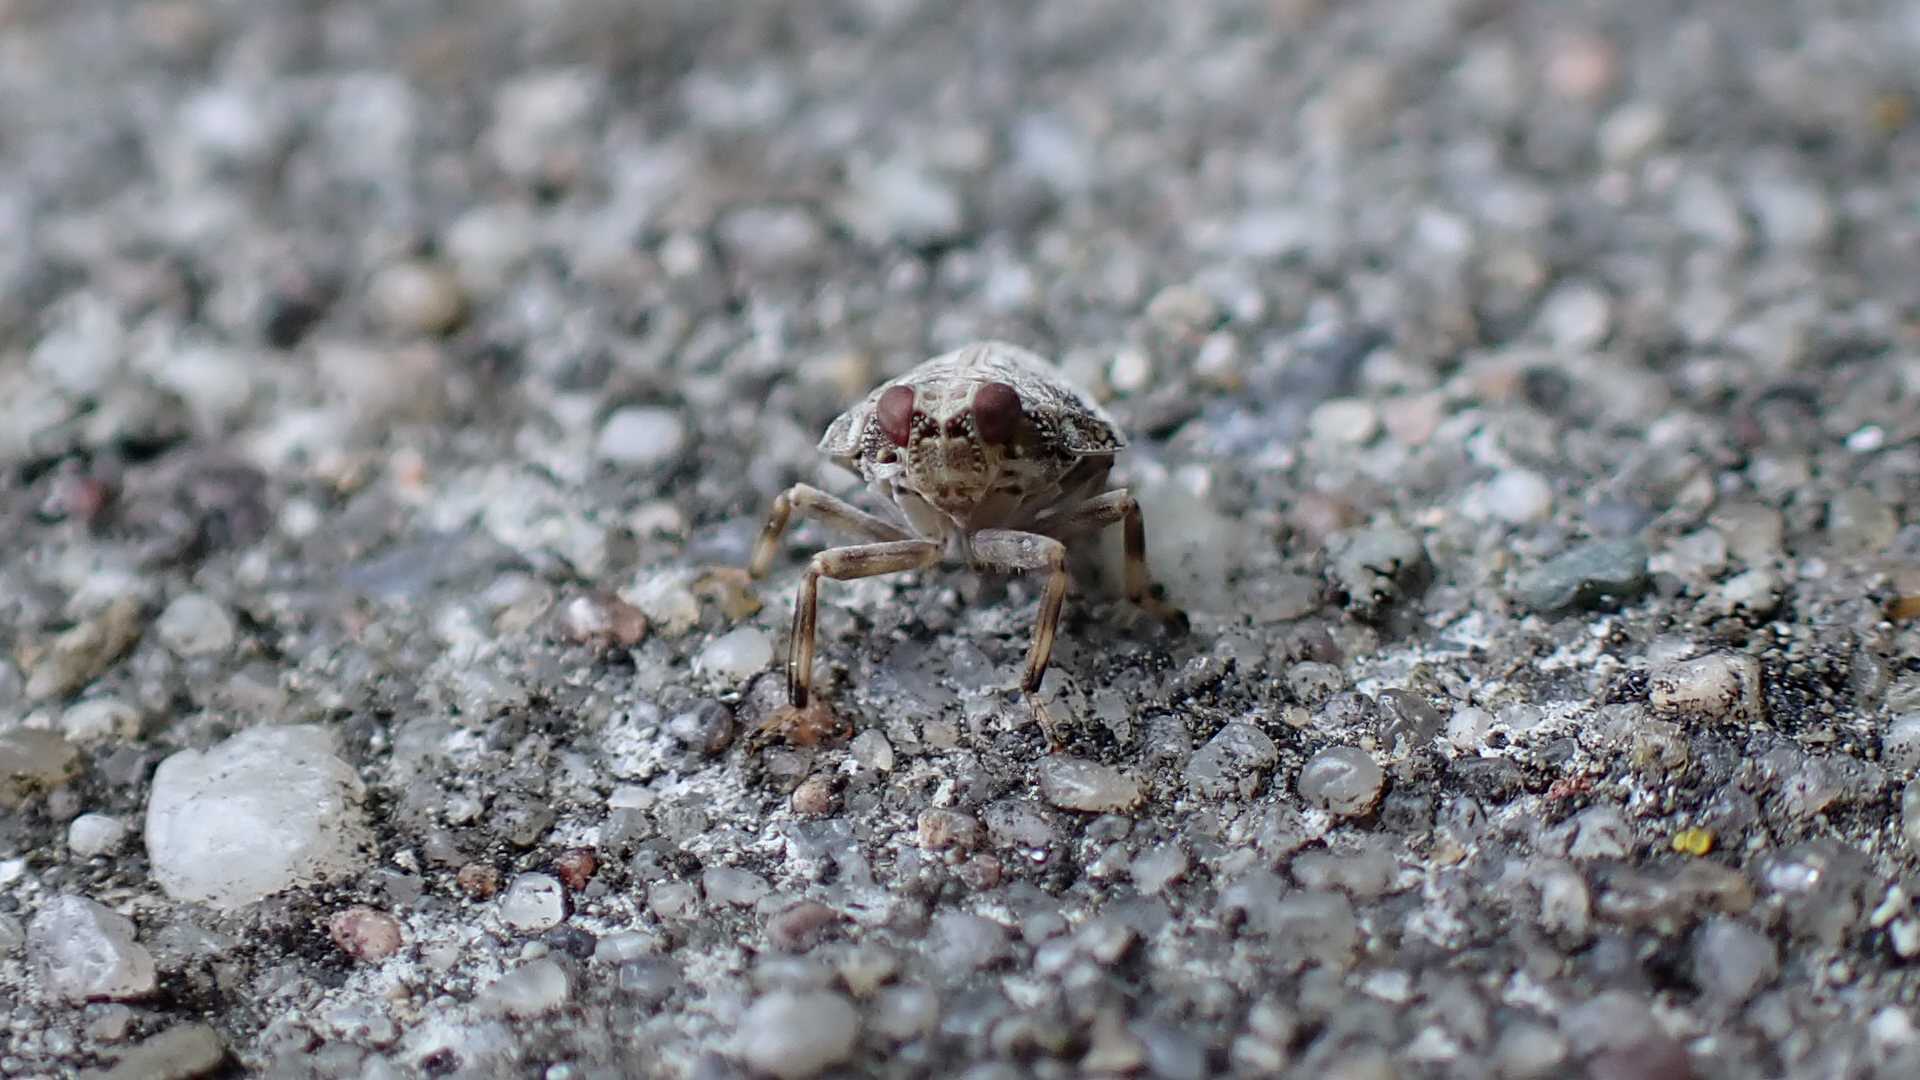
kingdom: Animalia
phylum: Arthropoda
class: Insecta
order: Hemiptera
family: Issidae
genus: Issus
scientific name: Issus coleoptratus
